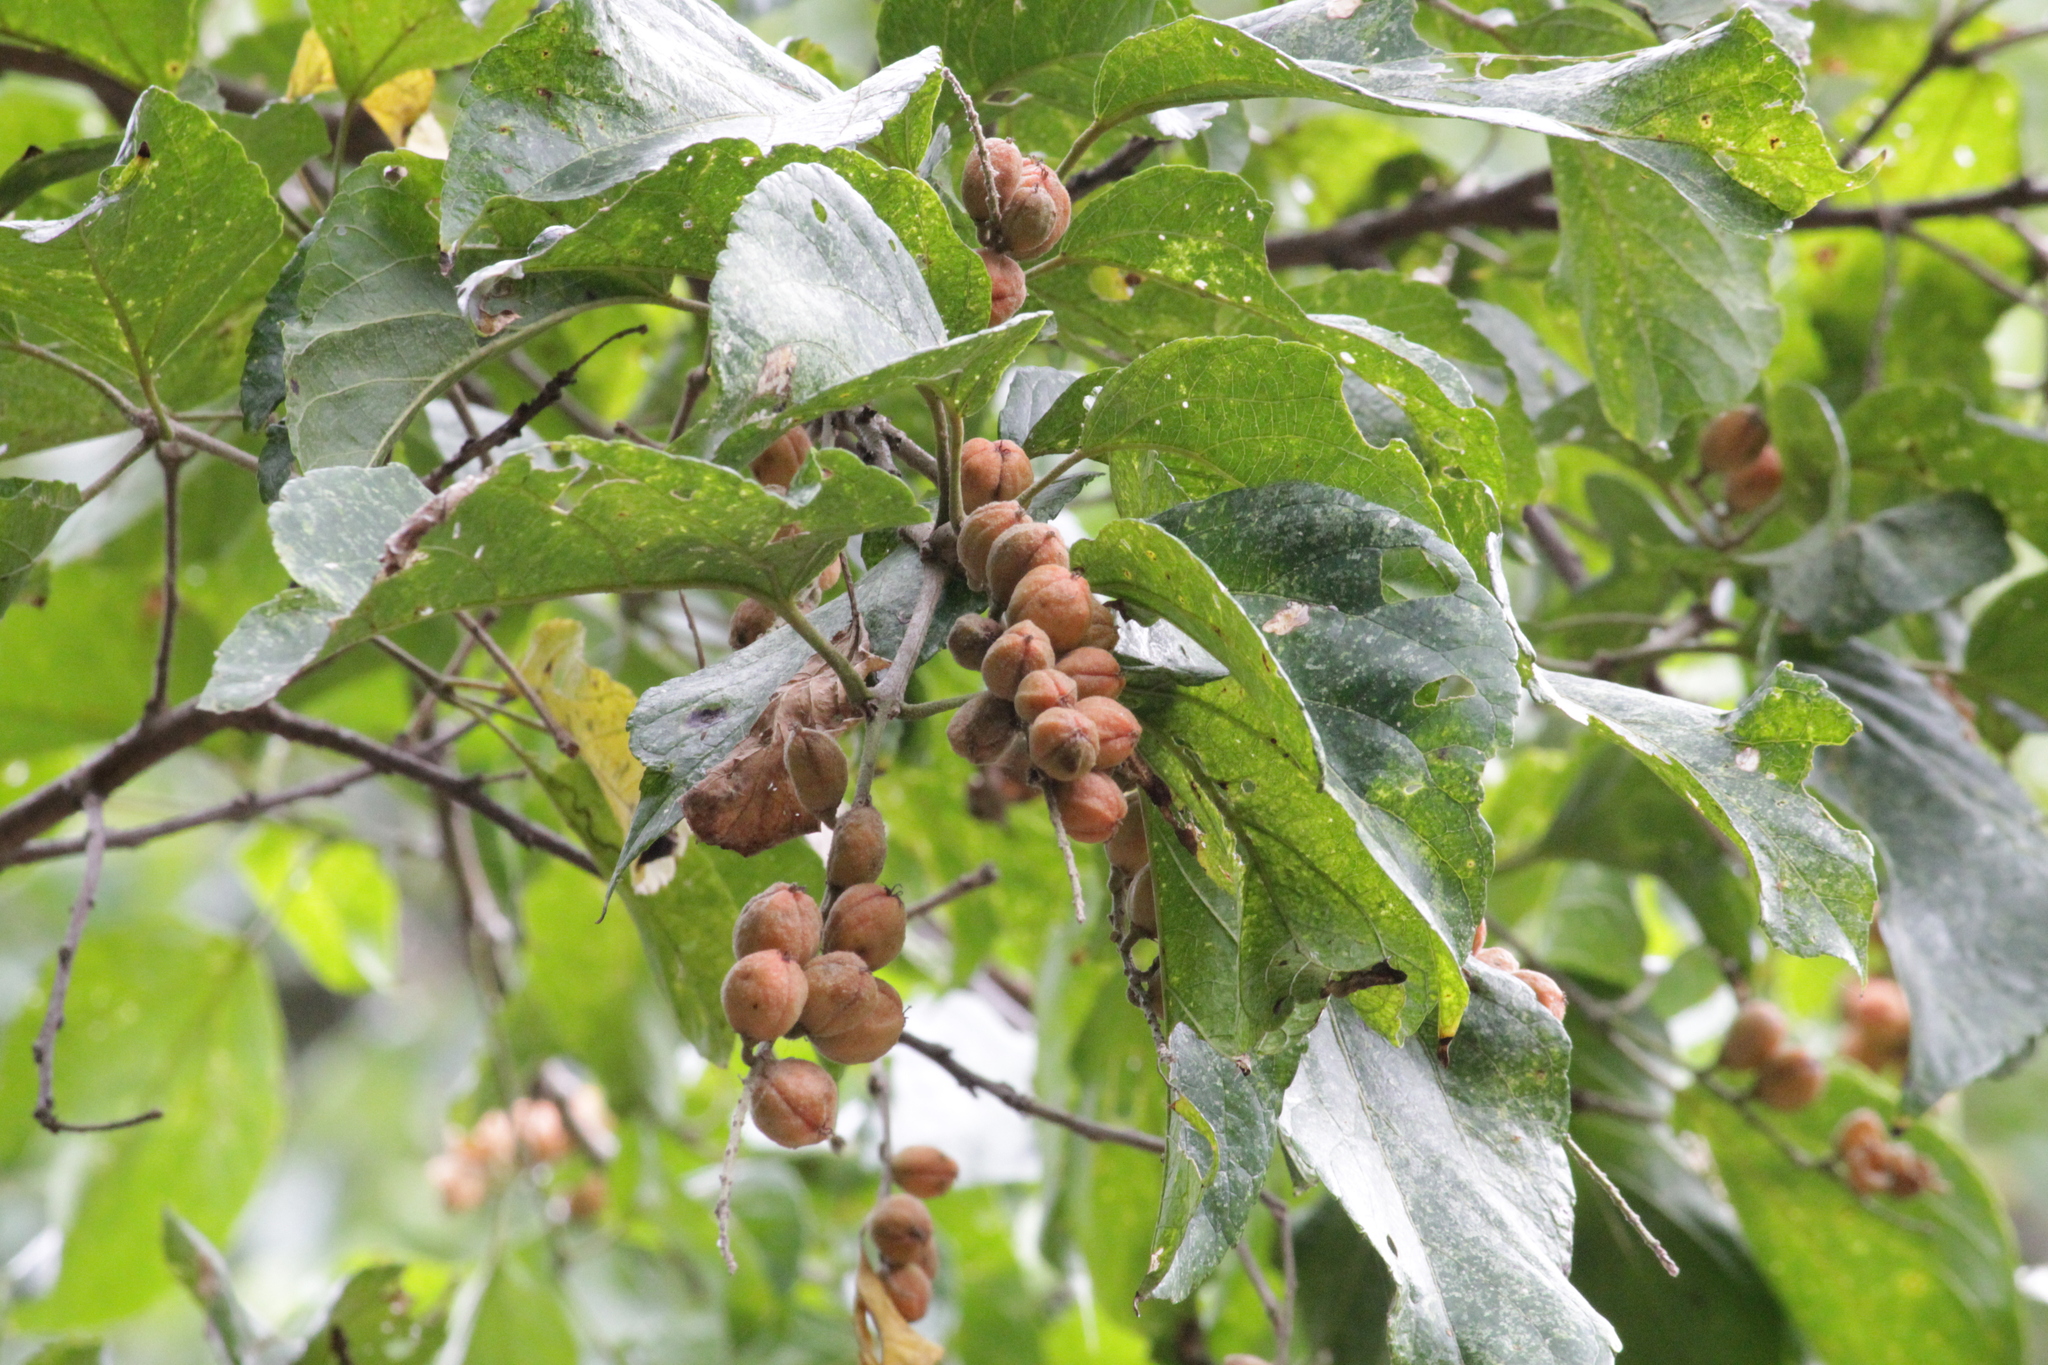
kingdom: Plantae
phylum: Tracheophyta
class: Magnoliopsida
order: Malpighiales
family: Euphorbiaceae
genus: Croton
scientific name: Croton sylvaticus
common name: Forest croton
